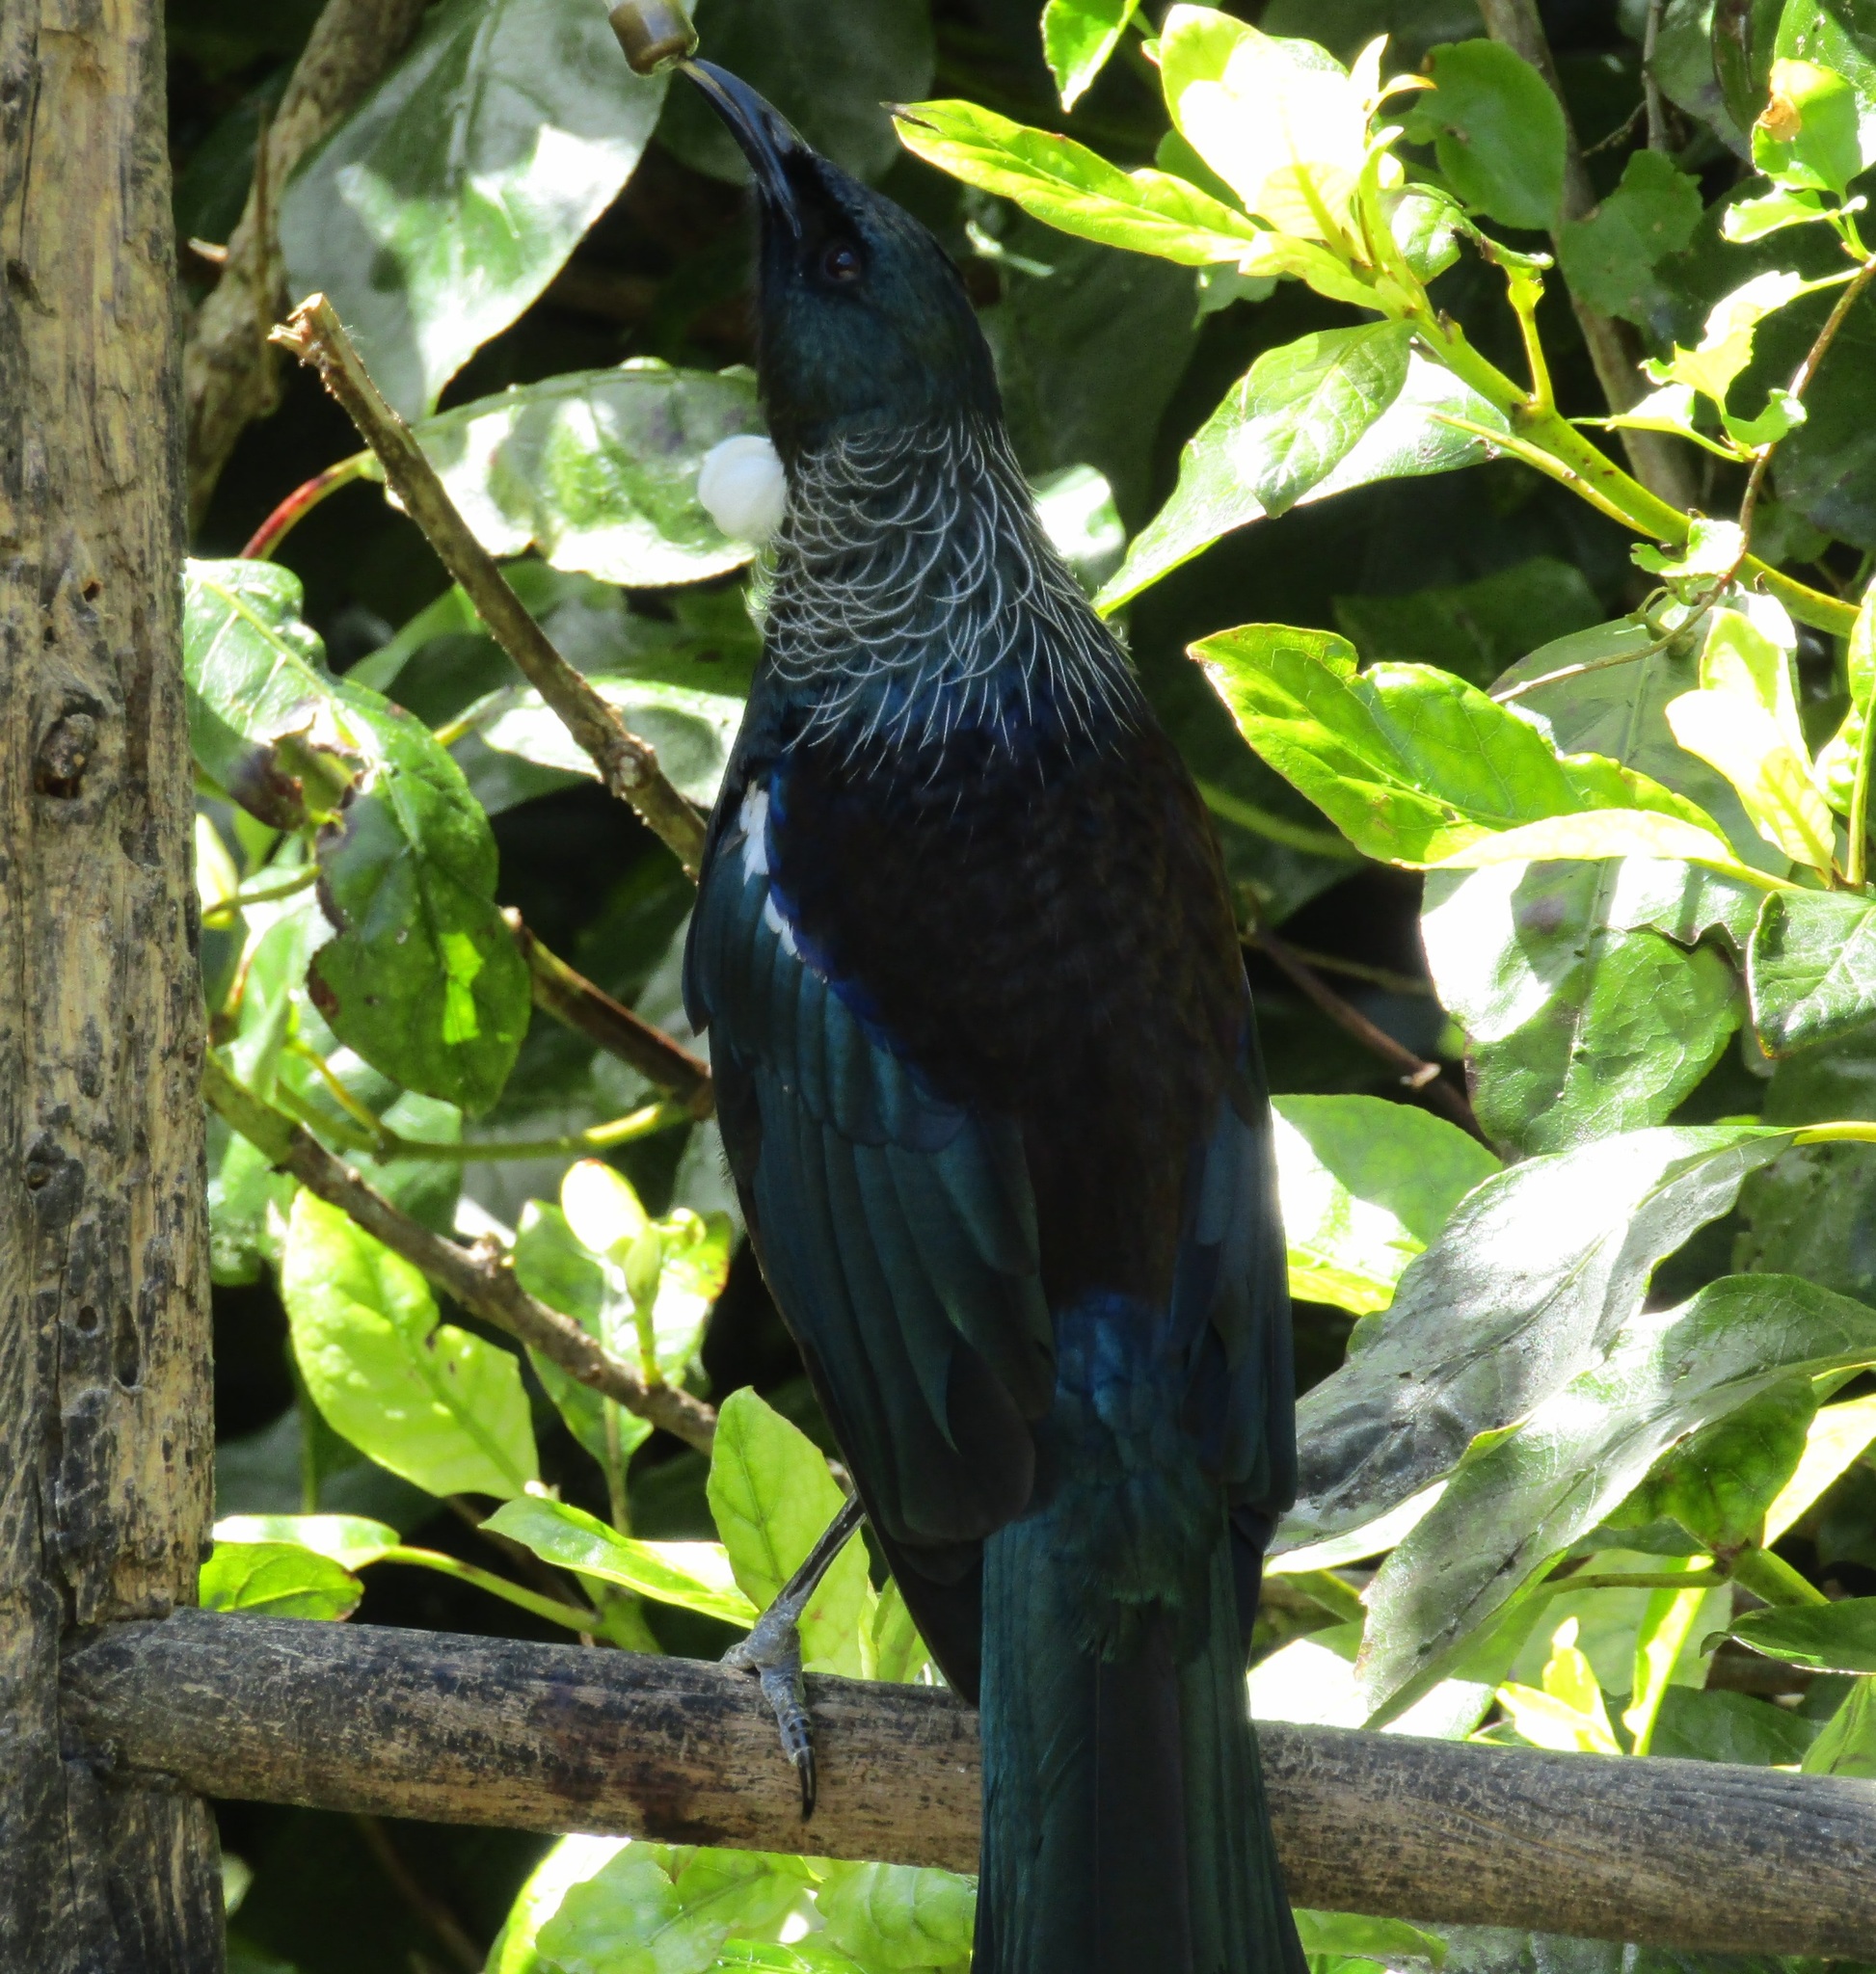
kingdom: Animalia
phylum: Chordata
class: Aves
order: Passeriformes
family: Meliphagidae
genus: Prosthemadera
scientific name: Prosthemadera novaeseelandiae
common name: Tui
